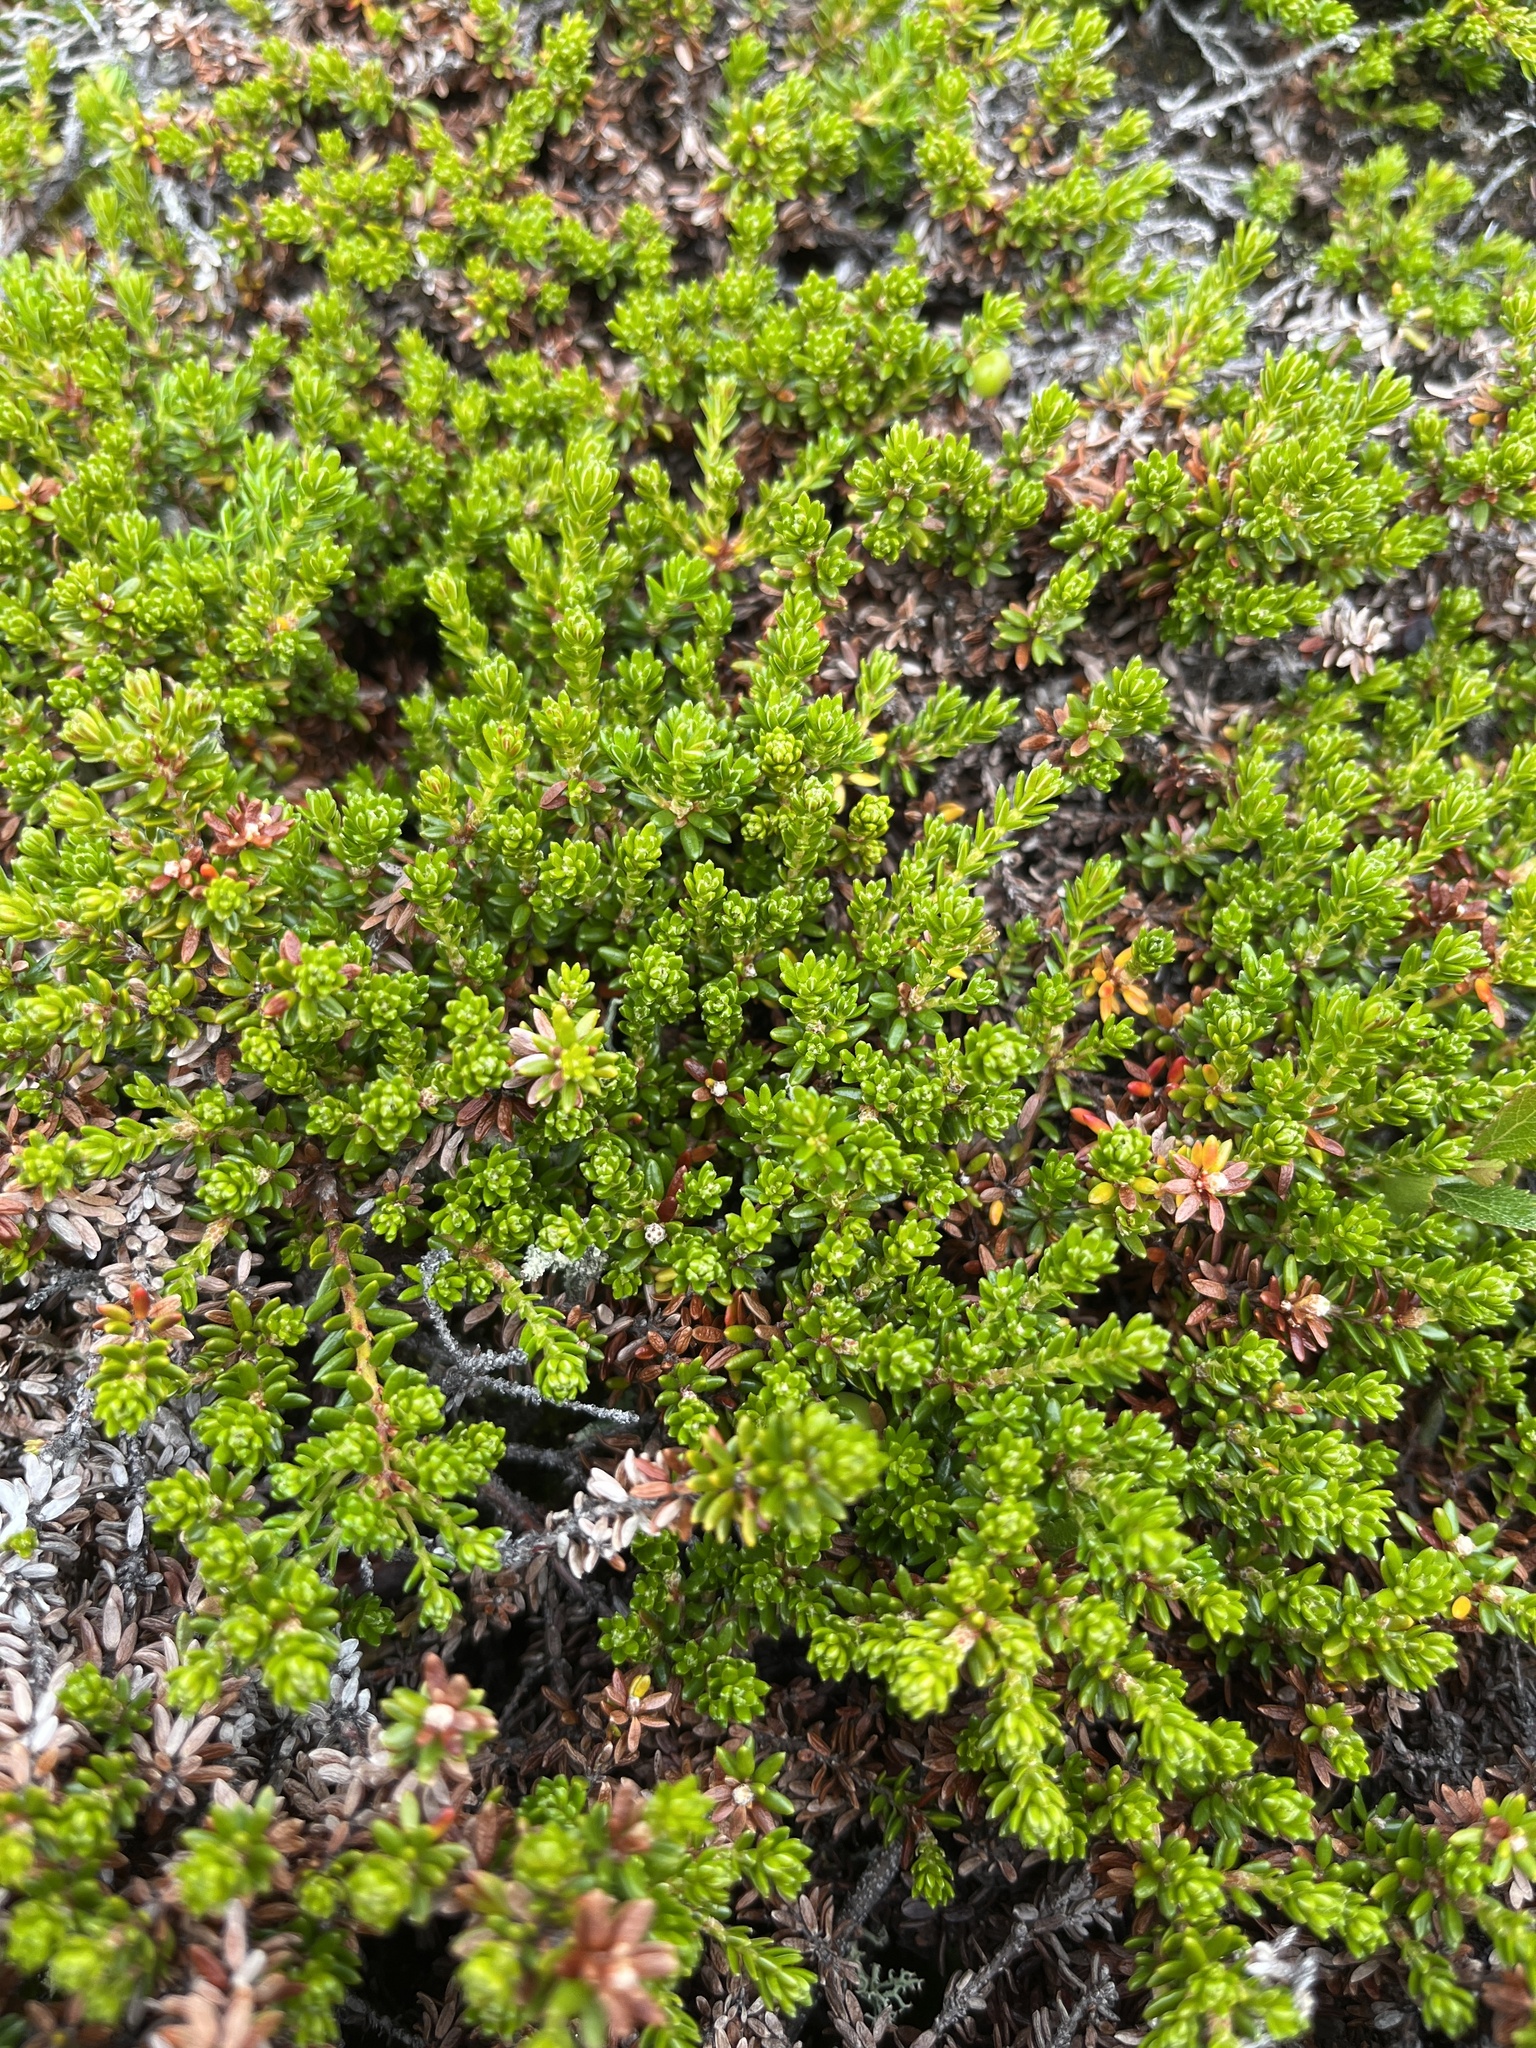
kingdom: Plantae
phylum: Tracheophyta
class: Magnoliopsida
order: Ericales
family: Ericaceae
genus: Empetrum
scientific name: Empetrum hermaphroditum
